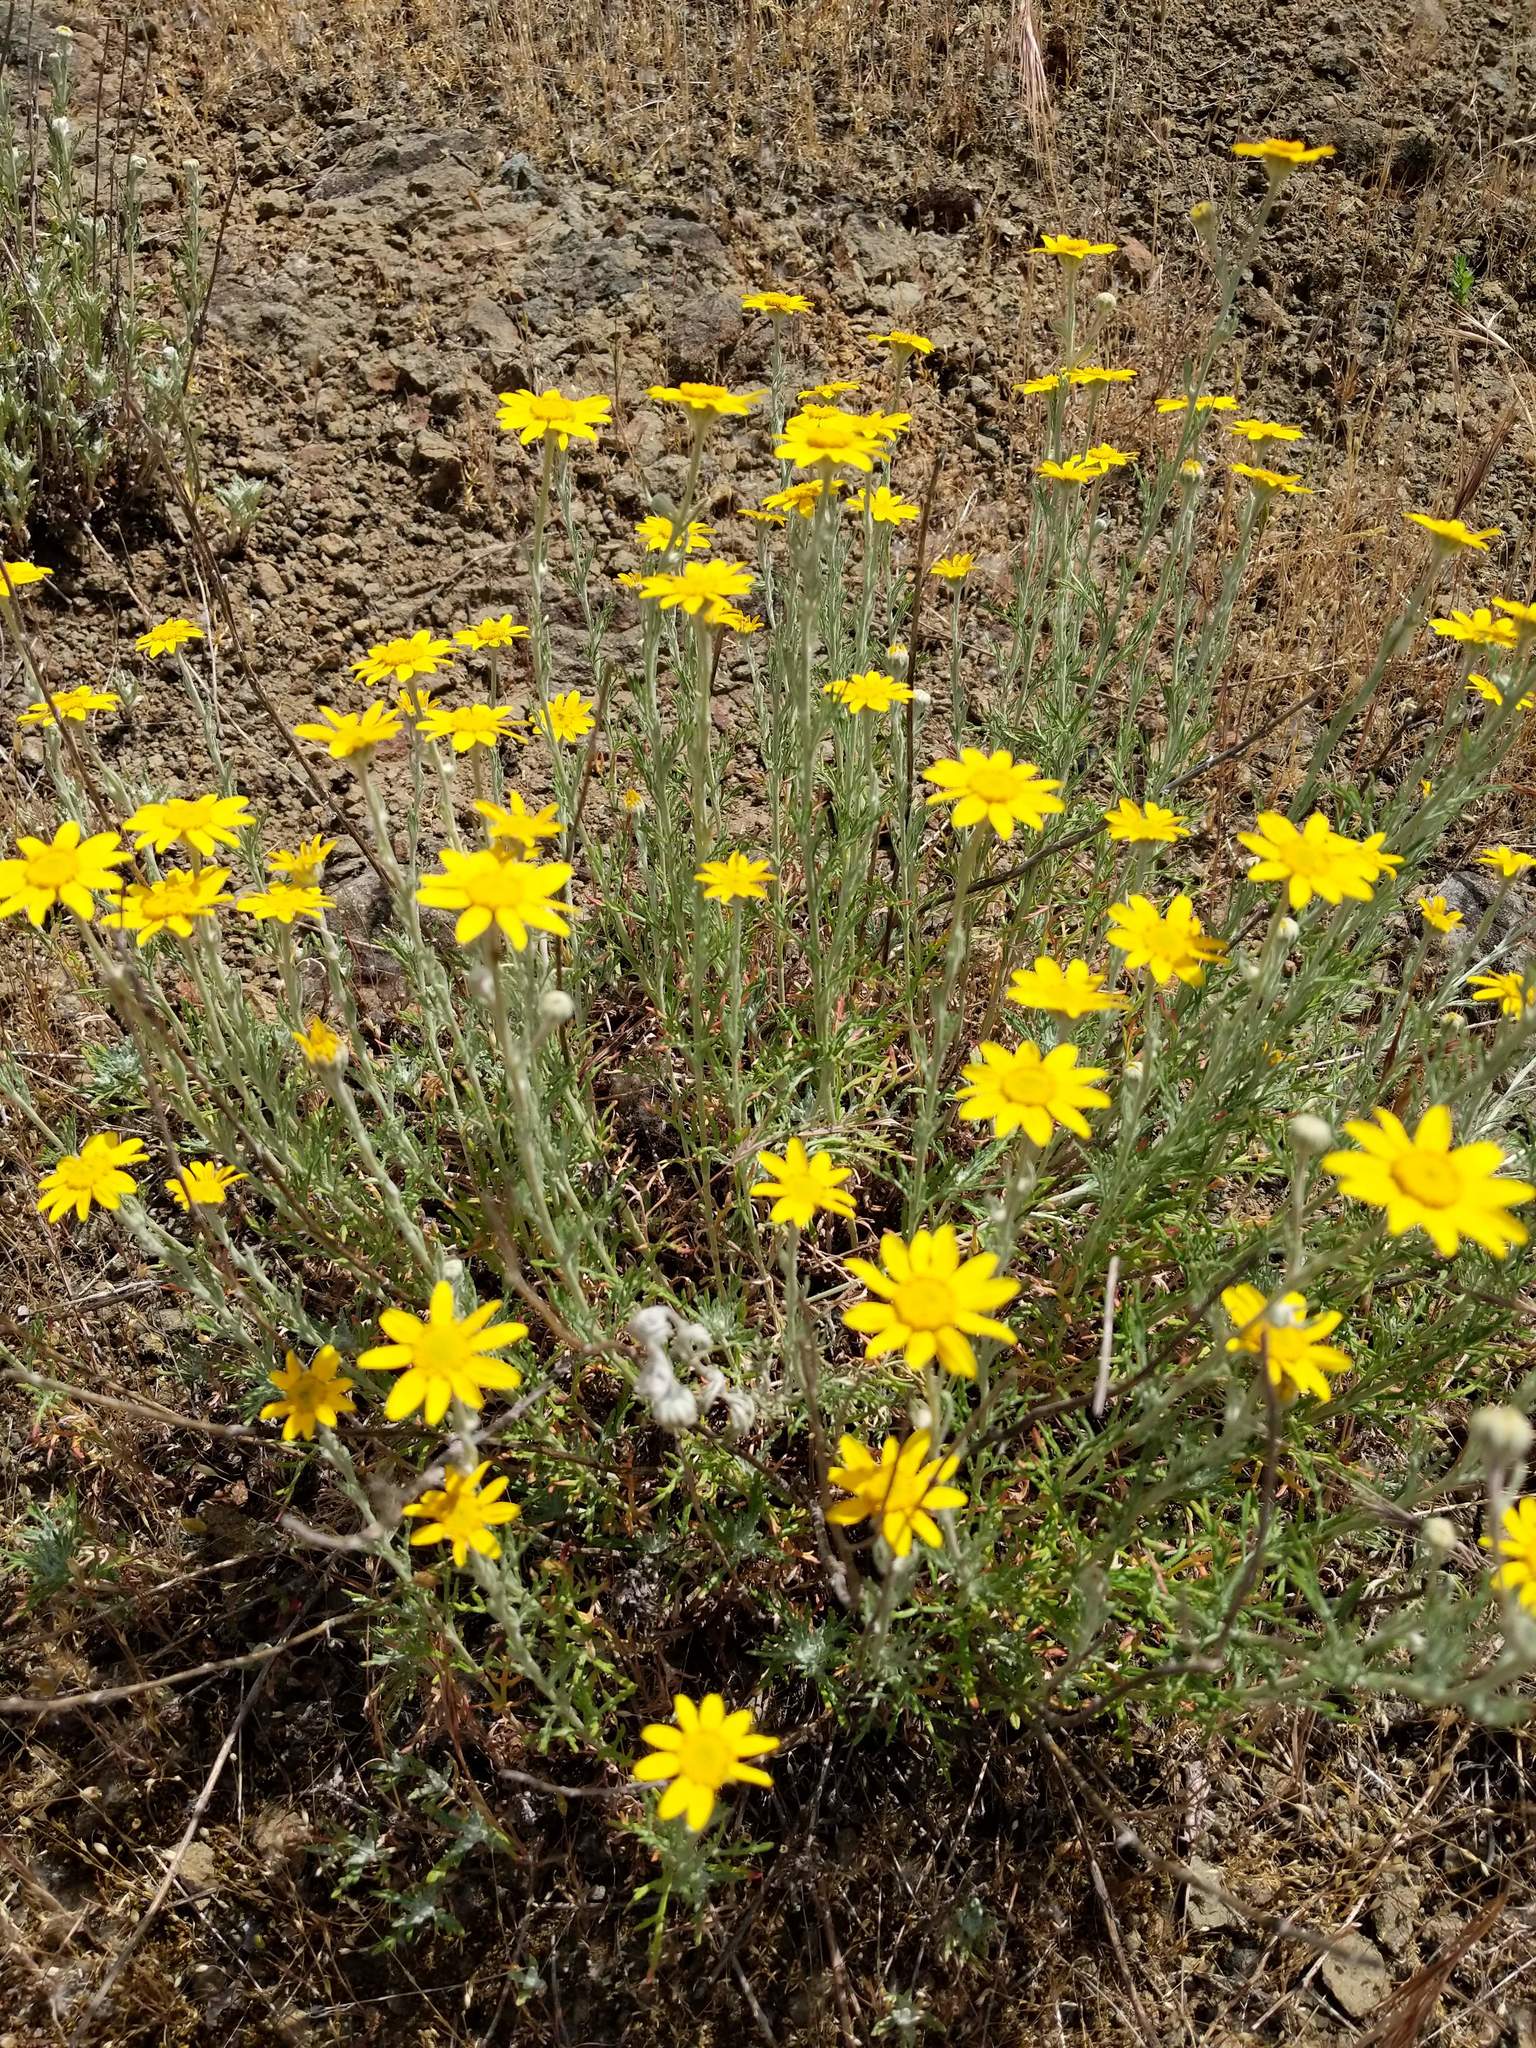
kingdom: Plantae
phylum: Tracheophyta
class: Magnoliopsida
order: Asterales
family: Asteraceae
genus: Eriophyllum
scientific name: Eriophyllum lanatum
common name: Common woolly-sunflower
